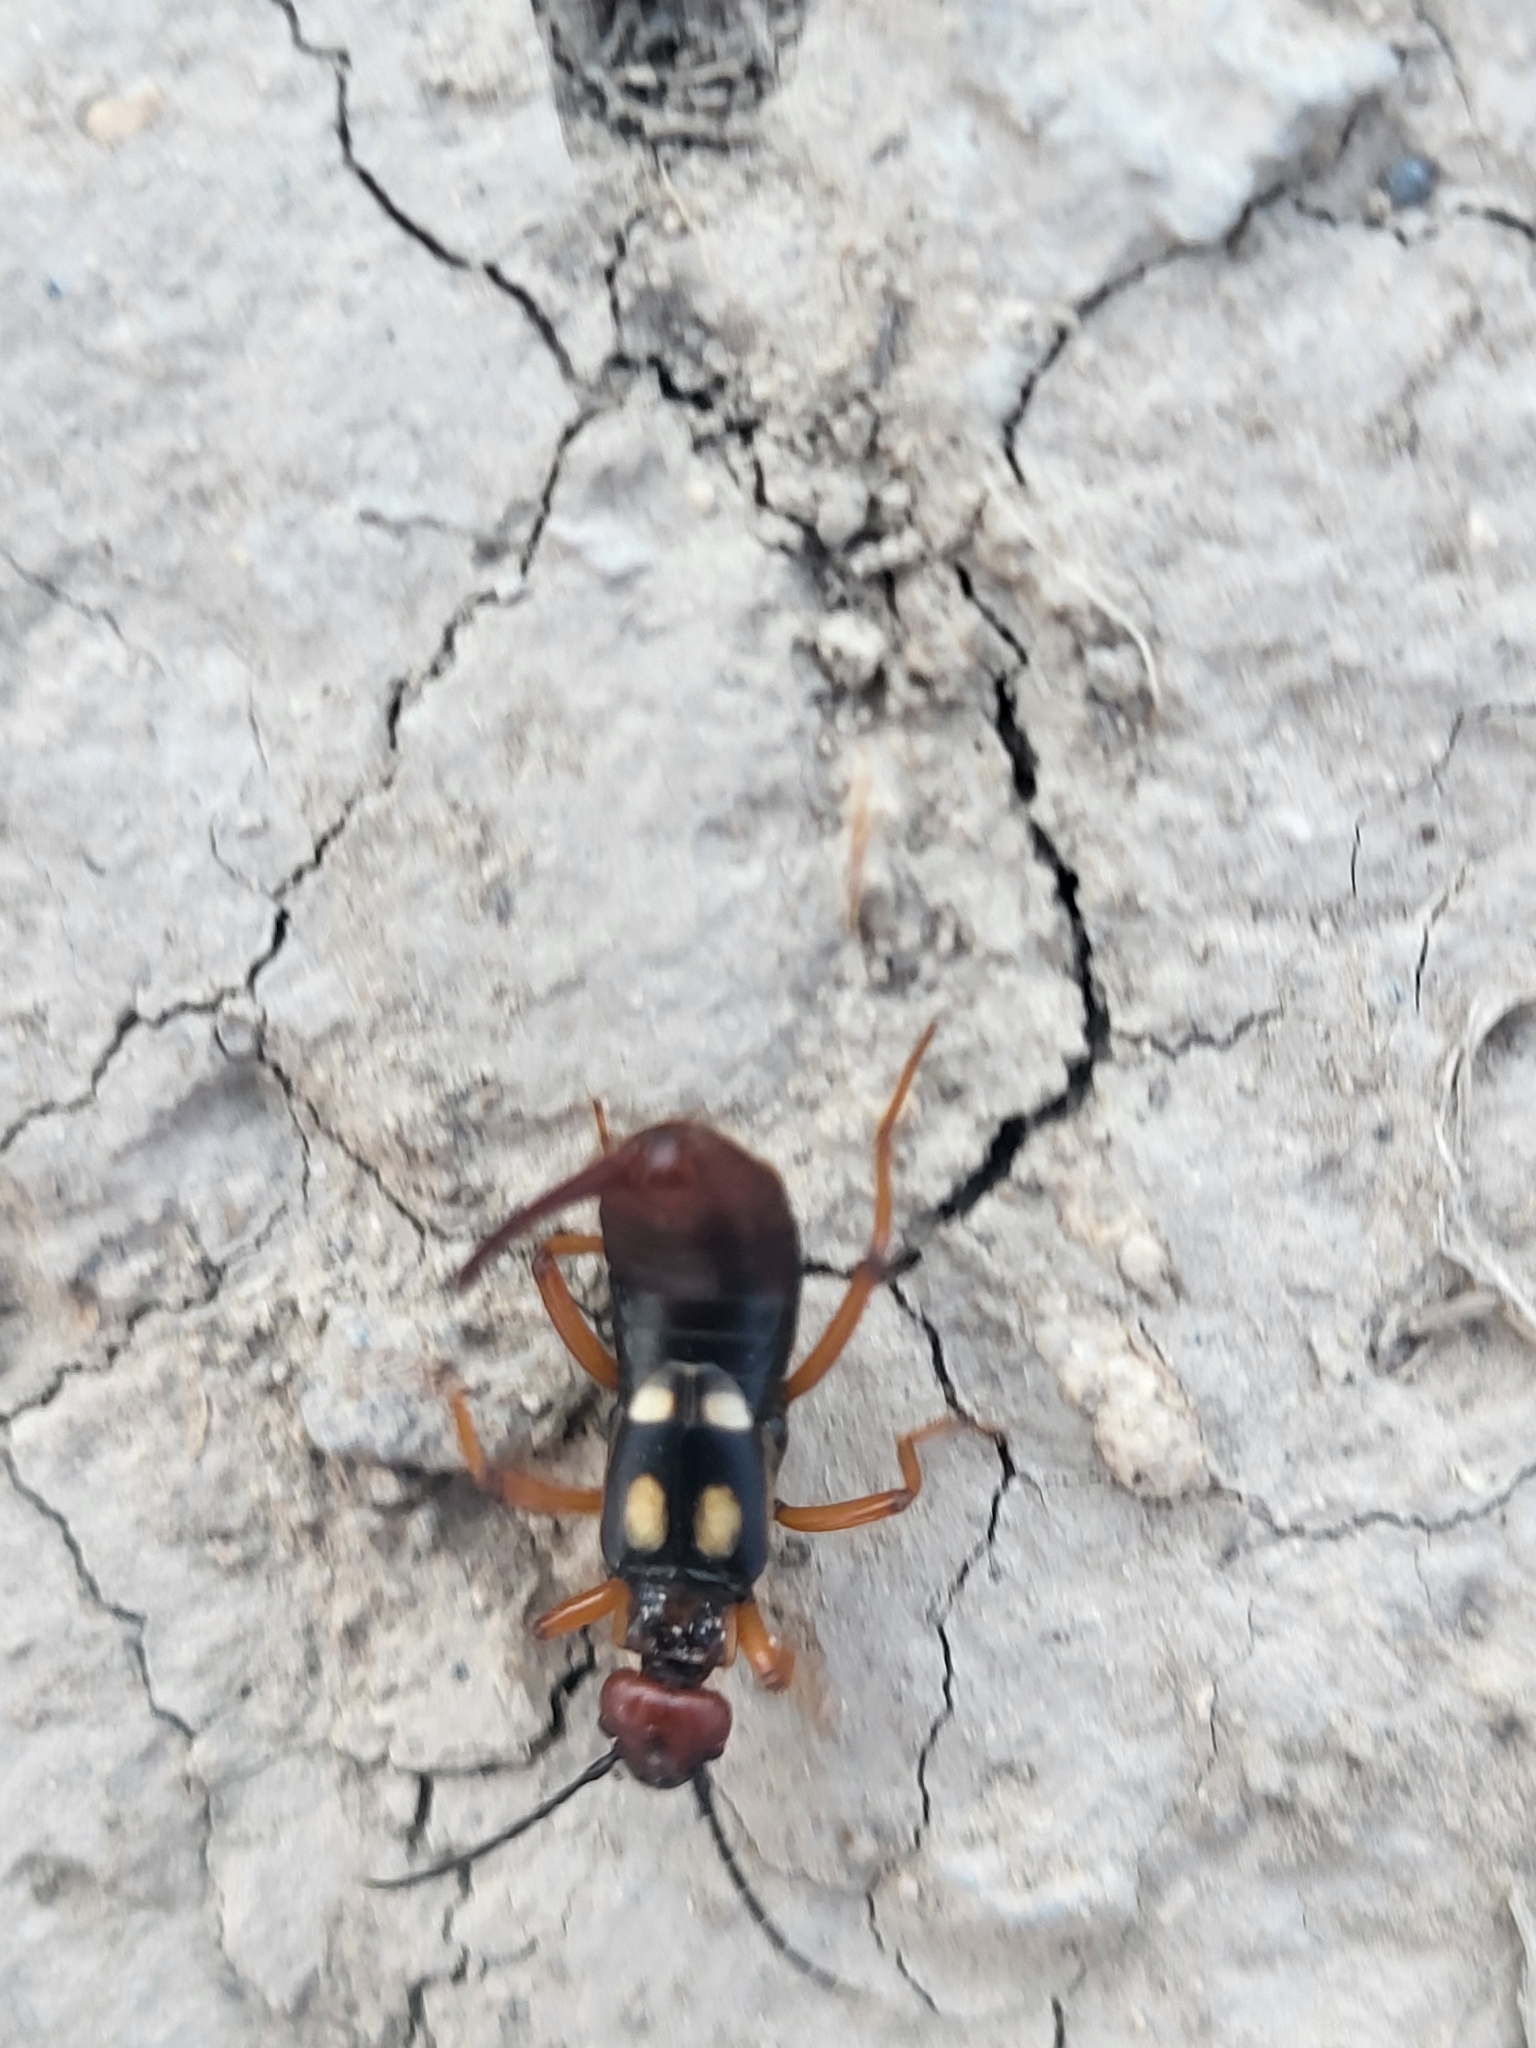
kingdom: Animalia
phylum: Arthropoda
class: Insecta
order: Dermaptera
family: Forficulidae
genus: Anechura
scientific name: Anechura bipunctata
